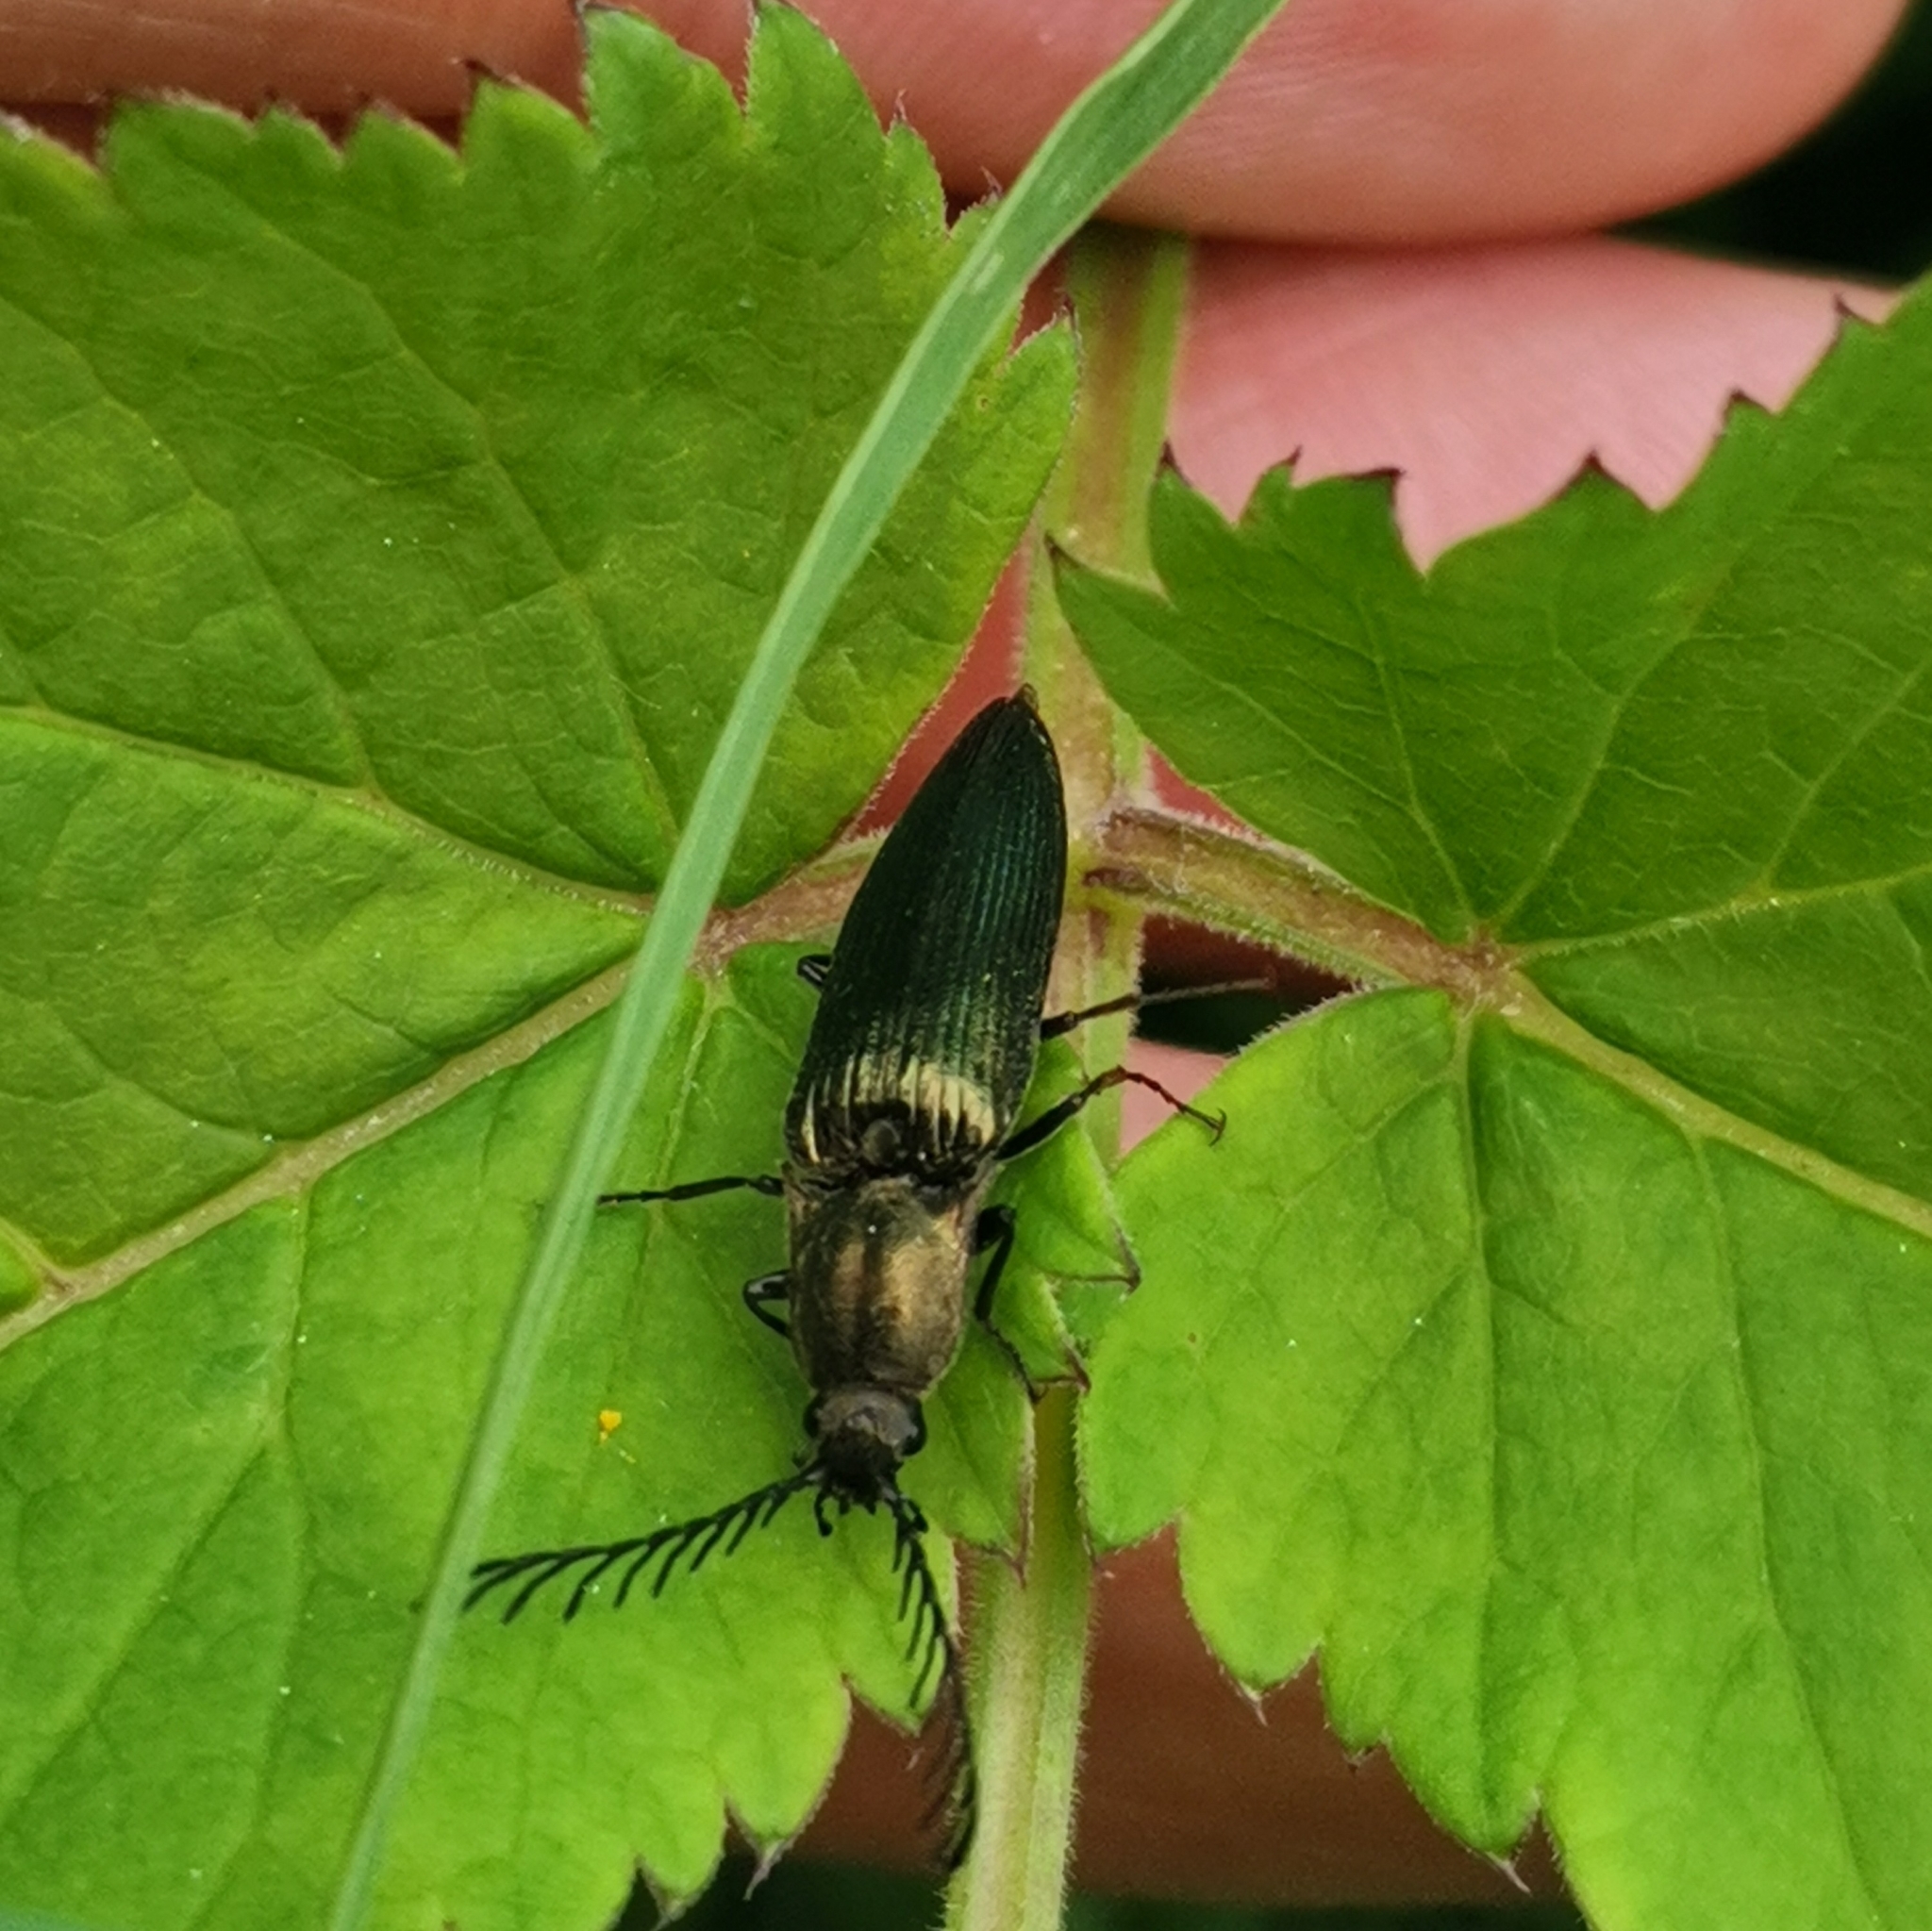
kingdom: Animalia
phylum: Arthropoda
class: Insecta
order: Coleoptera
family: Elateridae
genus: Ctenicera
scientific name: Ctenicera pectinicornis
